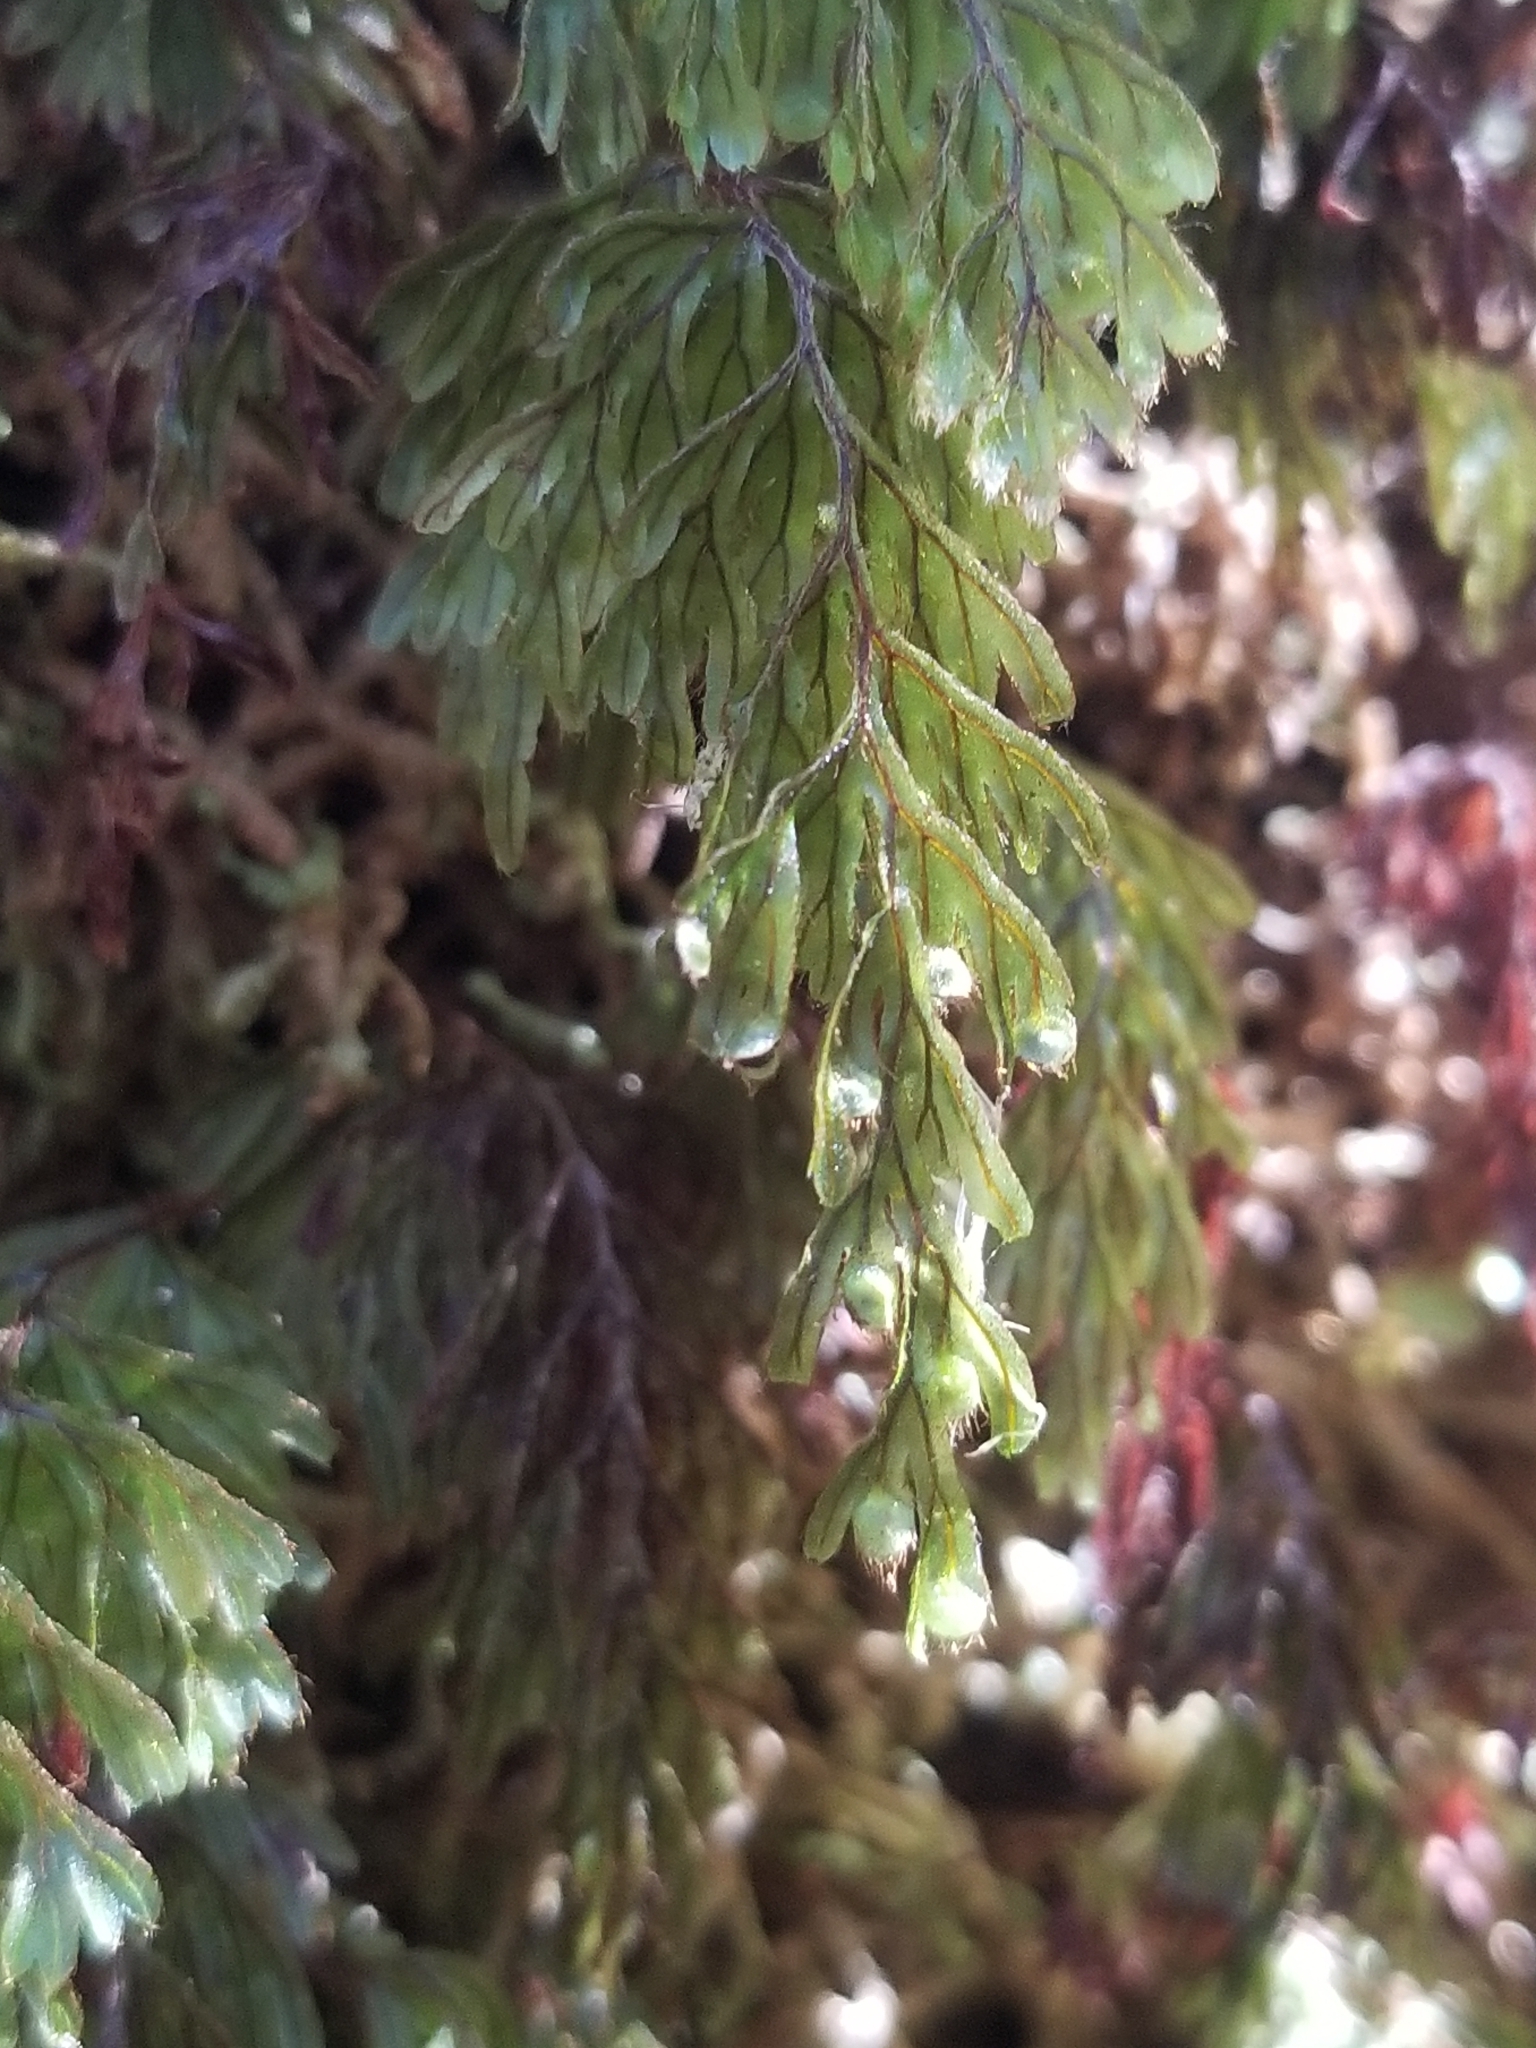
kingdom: Plantae
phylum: Tracheophyta
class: Polypodiopsida
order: Hymenophyllales
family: Hymenophyllaceae
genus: Hymenophyllum
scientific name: Hymenophyllum lanceolatum
